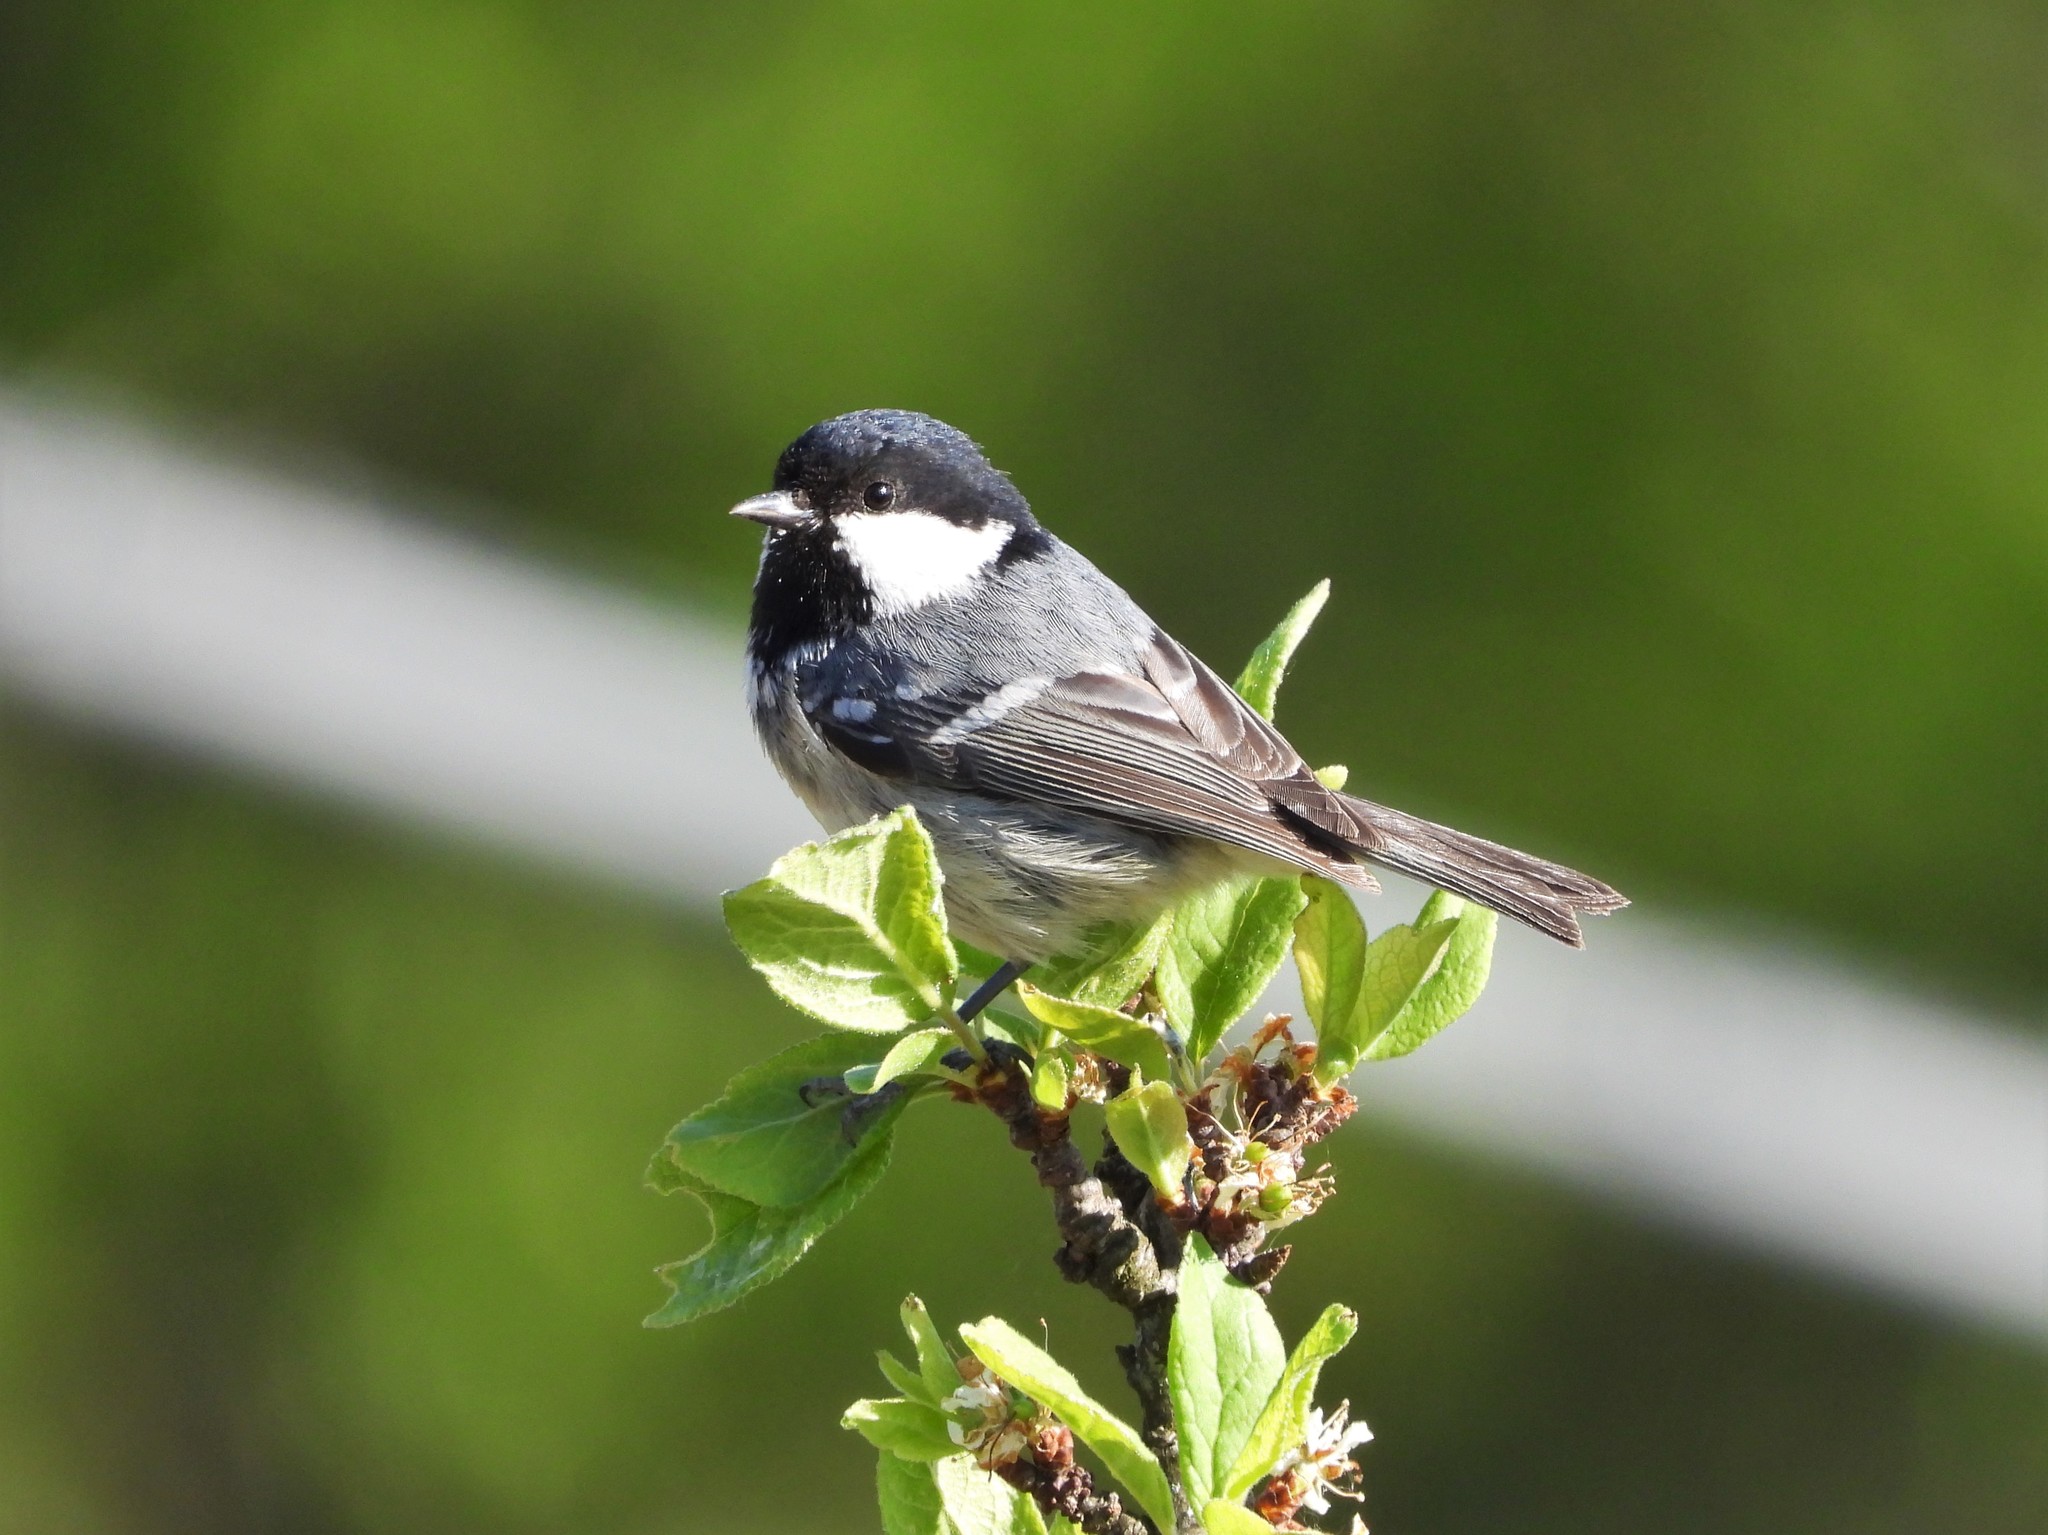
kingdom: Animalia
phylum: Chordata
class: Aves
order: Passeriformes
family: Paridae
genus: Periparus
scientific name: Periparus ater
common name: Coal tit
